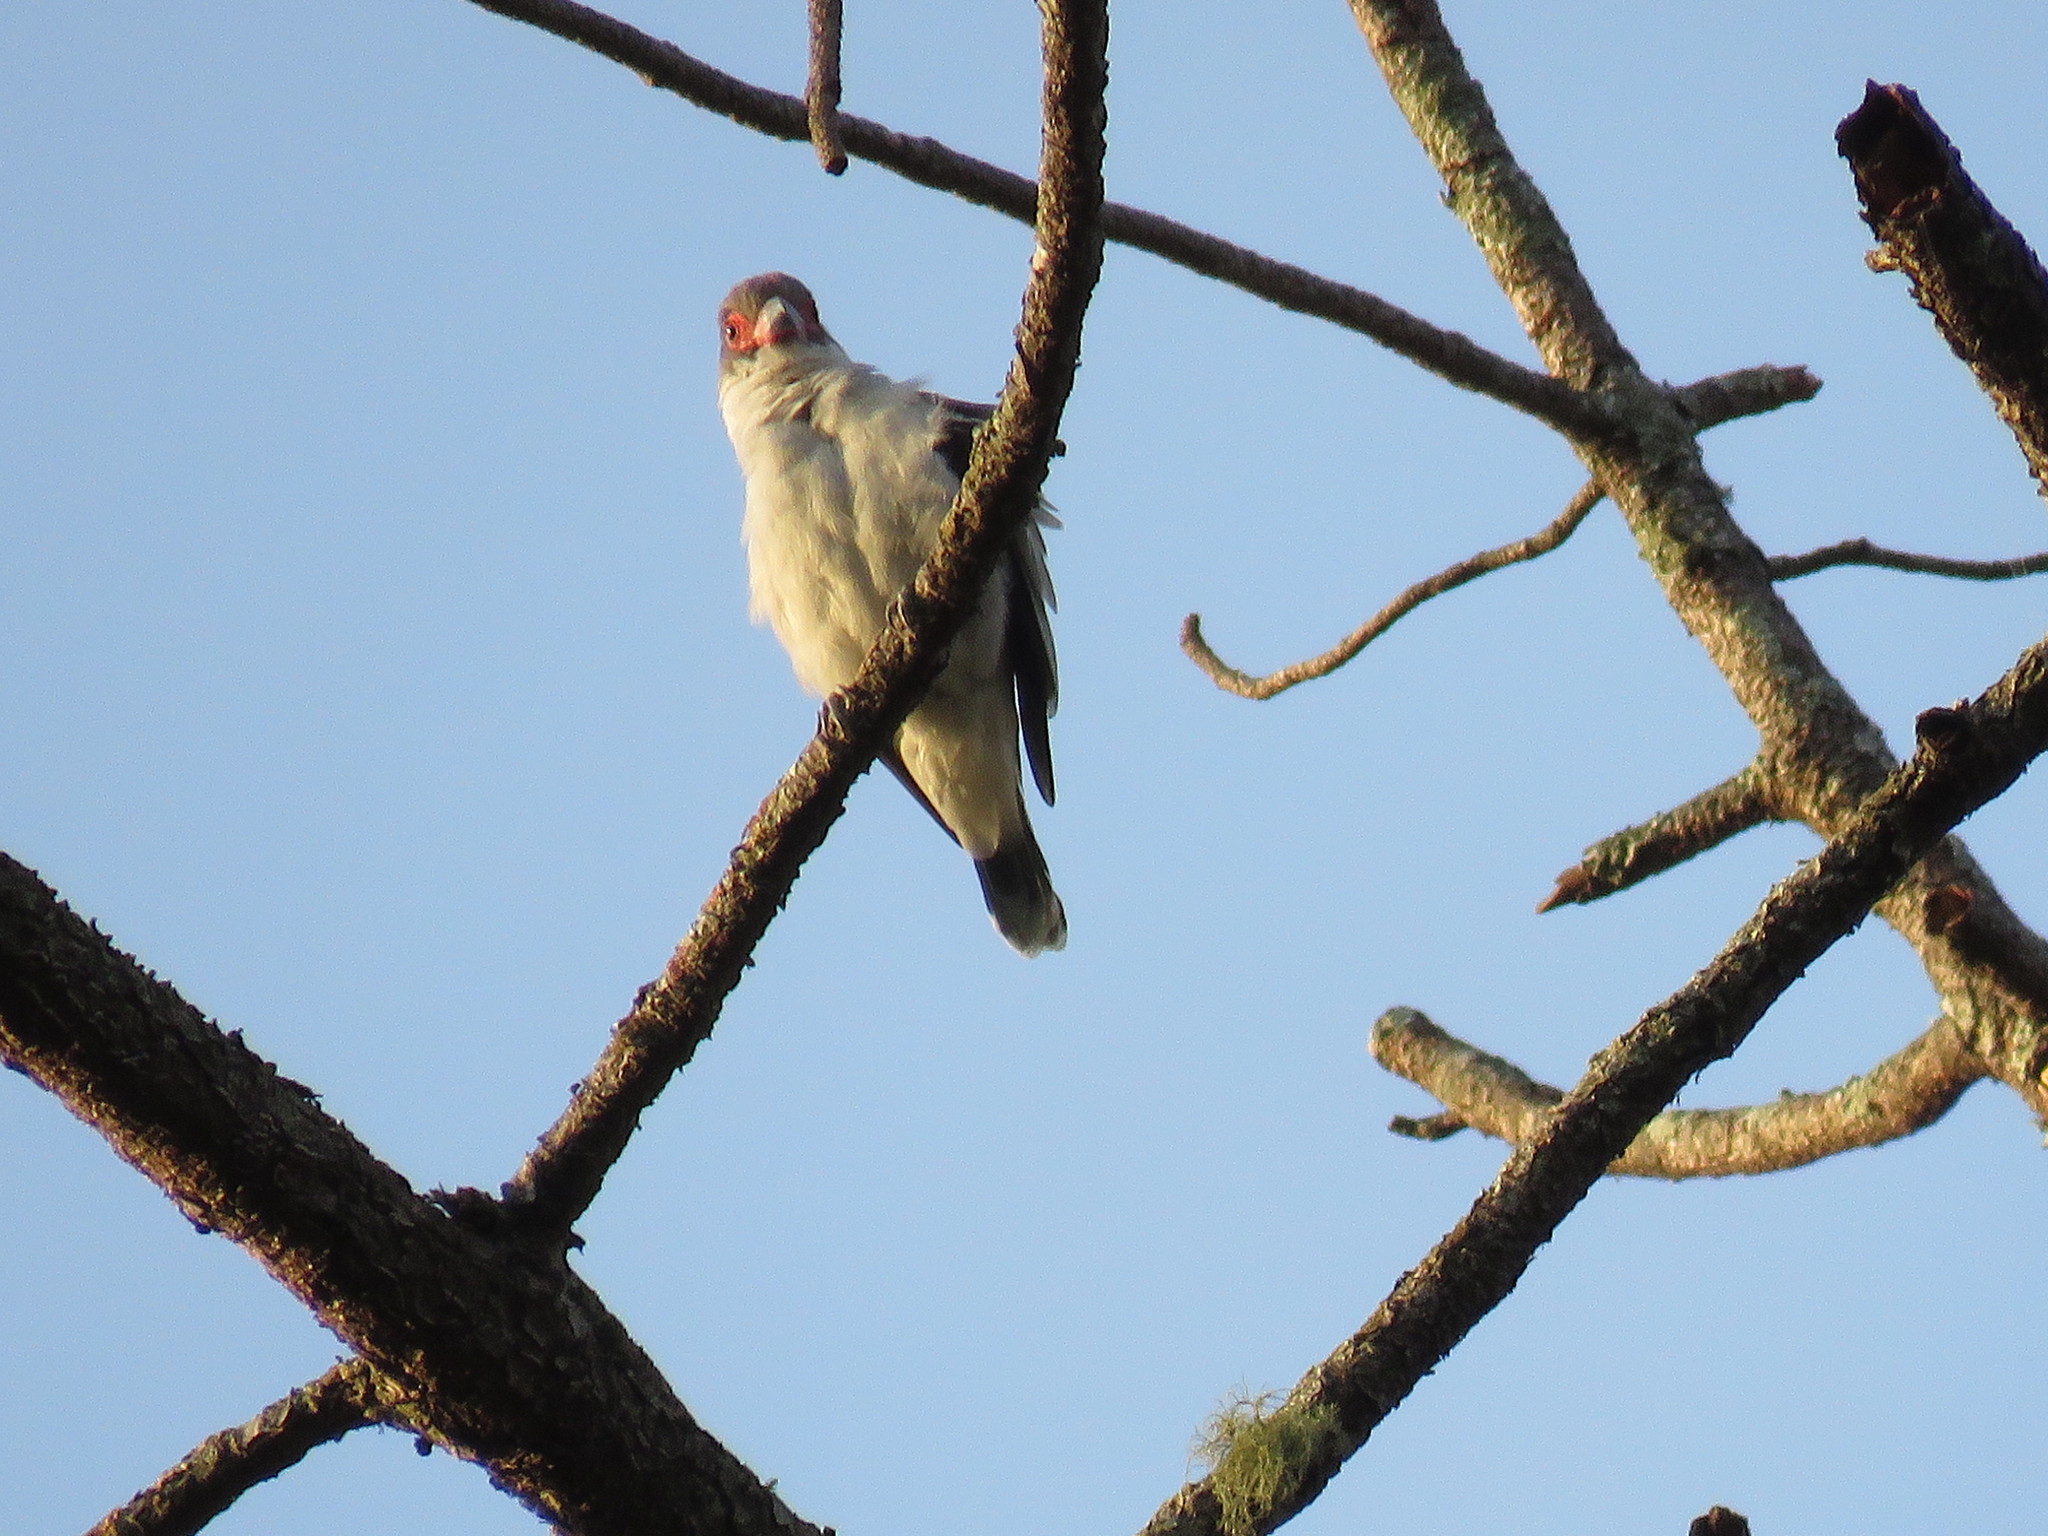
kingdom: Animalia
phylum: Chordata
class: Aves
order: Passeriformes
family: Cotingidae
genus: Tityra
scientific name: Tityra semifasciata
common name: Masked tityra
